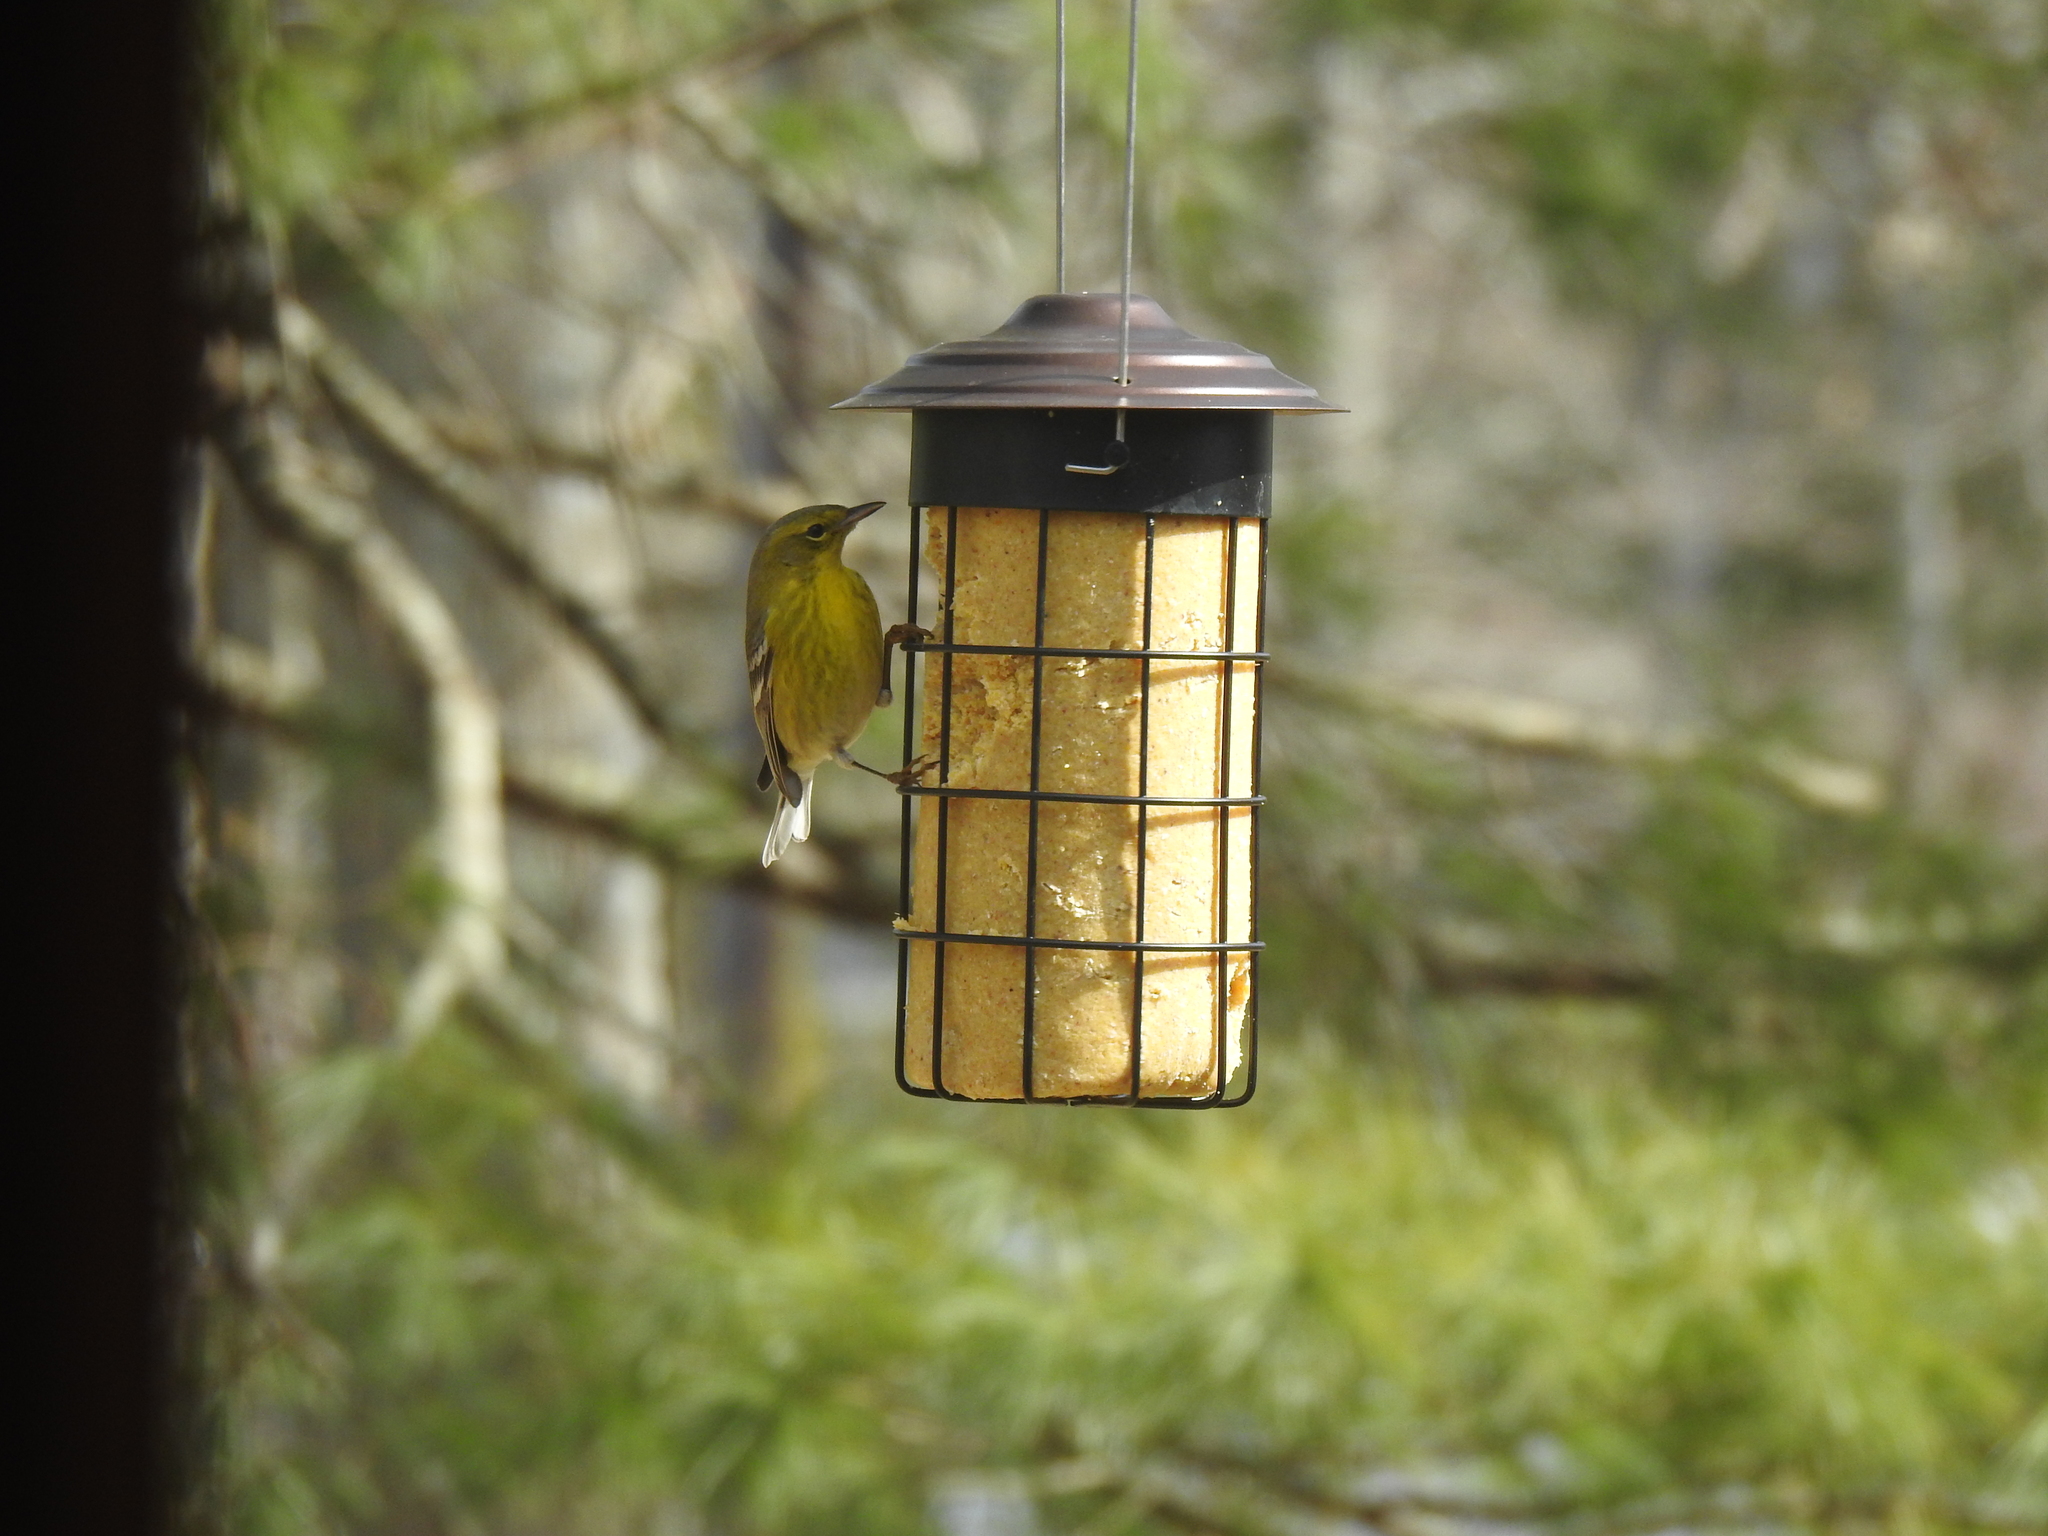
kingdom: Animalia
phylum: Chordata
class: Aves
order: Passeriformes
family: Parulidae
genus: Setophaga
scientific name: Setophaga pinus
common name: Pine warbler
